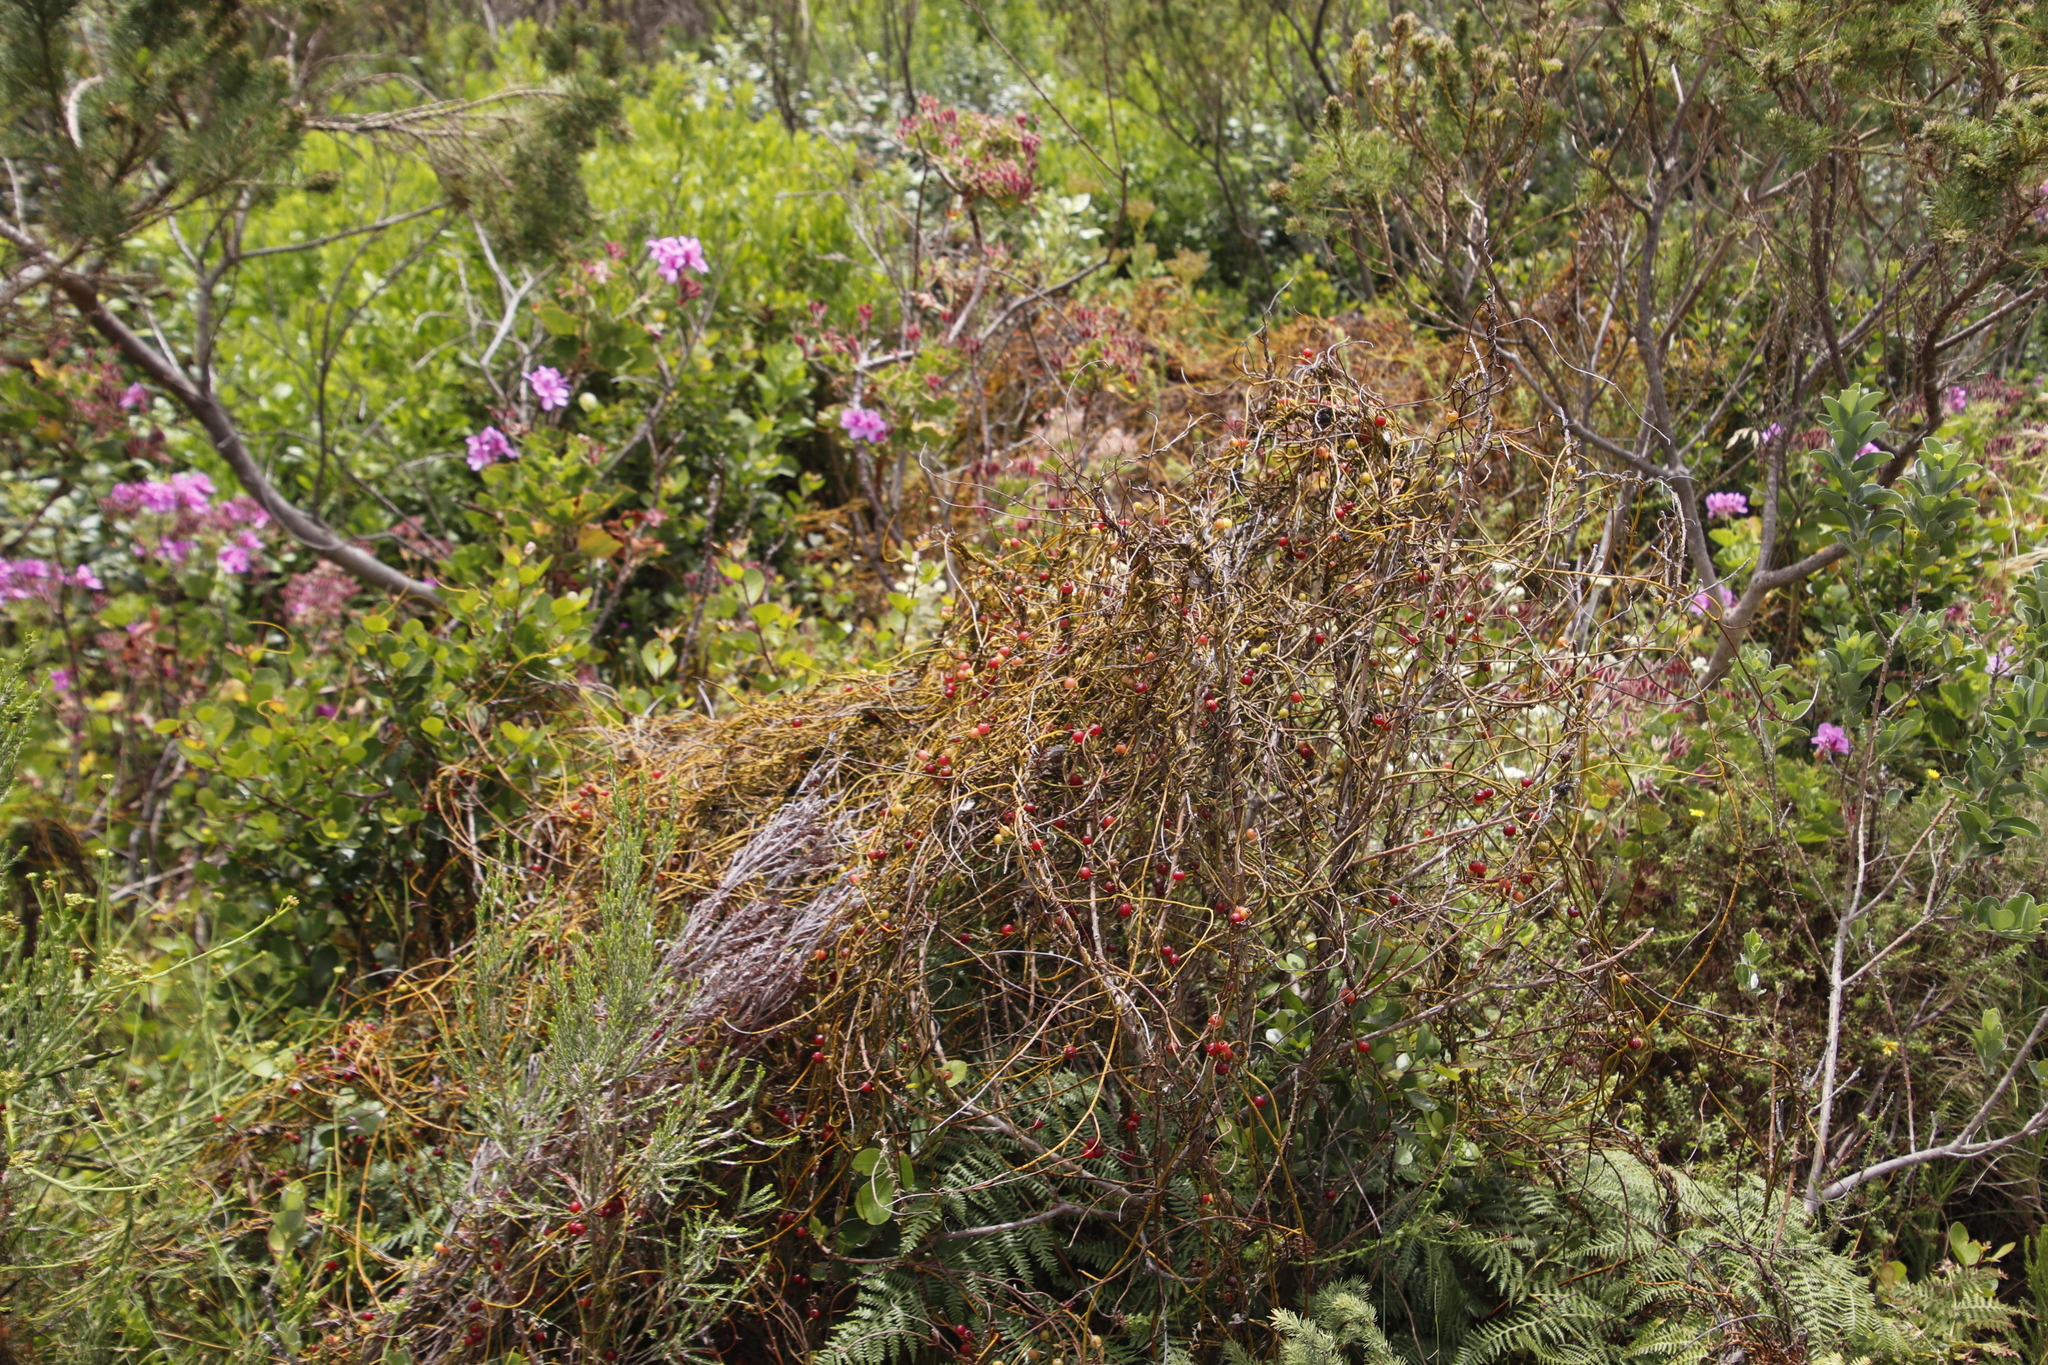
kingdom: Plantae
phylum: Tracheophyta
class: Magnoliopsida
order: Laurales
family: Lauraceae
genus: Cassytha
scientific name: Cassytha ciliolata
